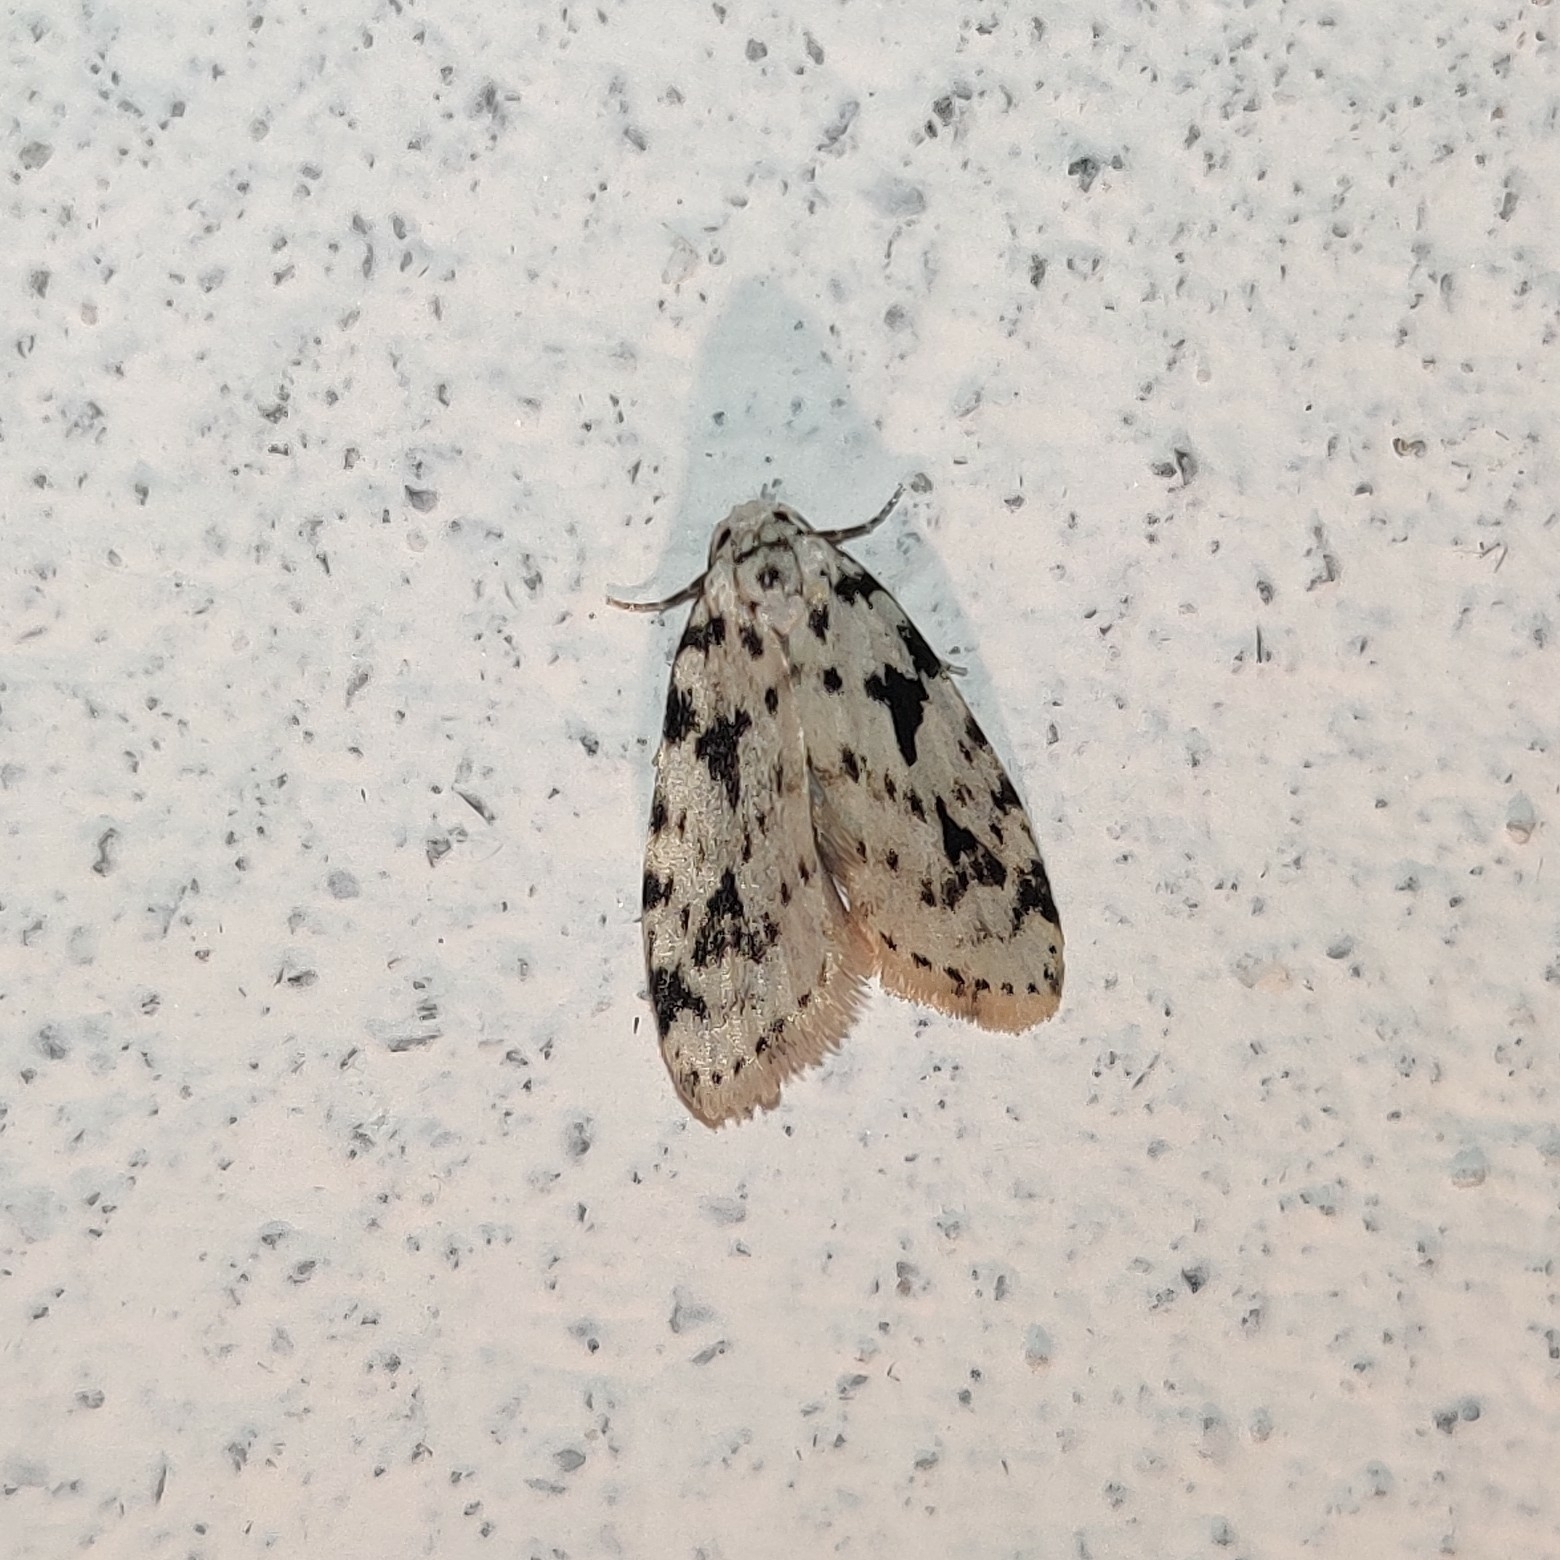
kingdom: Animalia
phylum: Arthropoda
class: Insecta
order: Lepidoptera
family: Erebidae
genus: Siccia
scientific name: Siccia sagittifera
